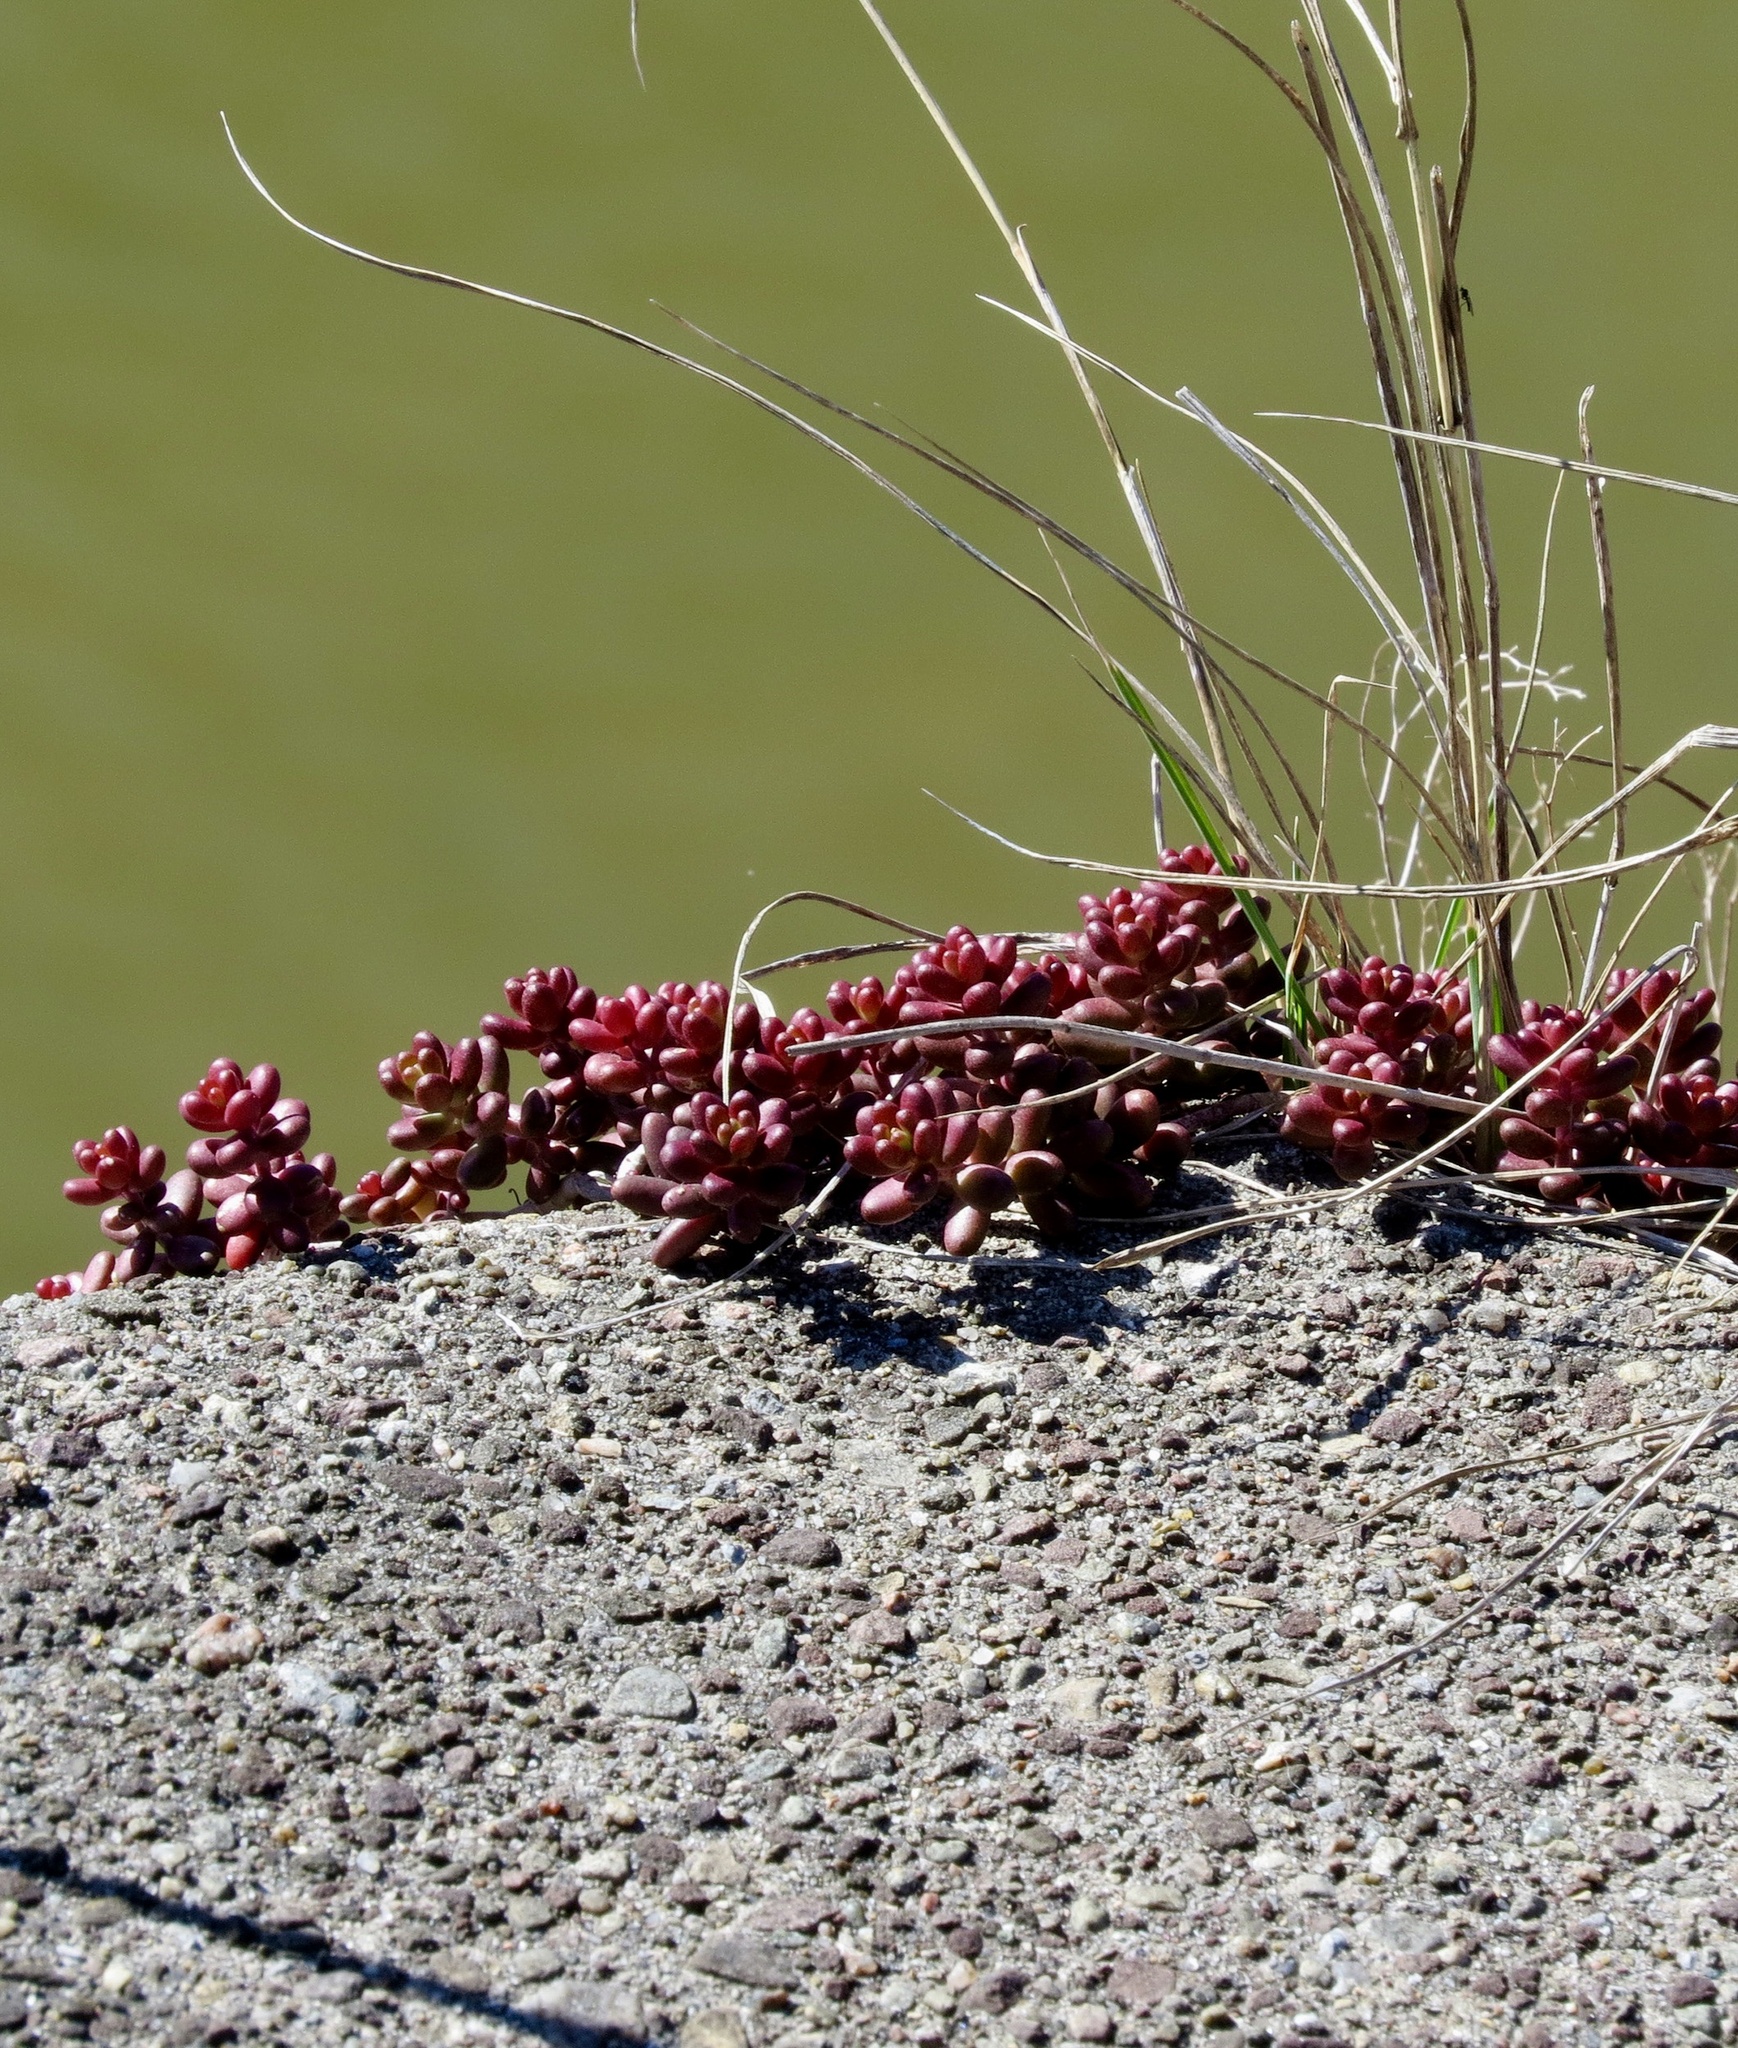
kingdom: Plantae
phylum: Tracheophyta
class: Magnoliopsida
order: Saxifragales
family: Crassulaceae
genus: Sedum
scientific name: Sedum album
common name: White stonecrop
